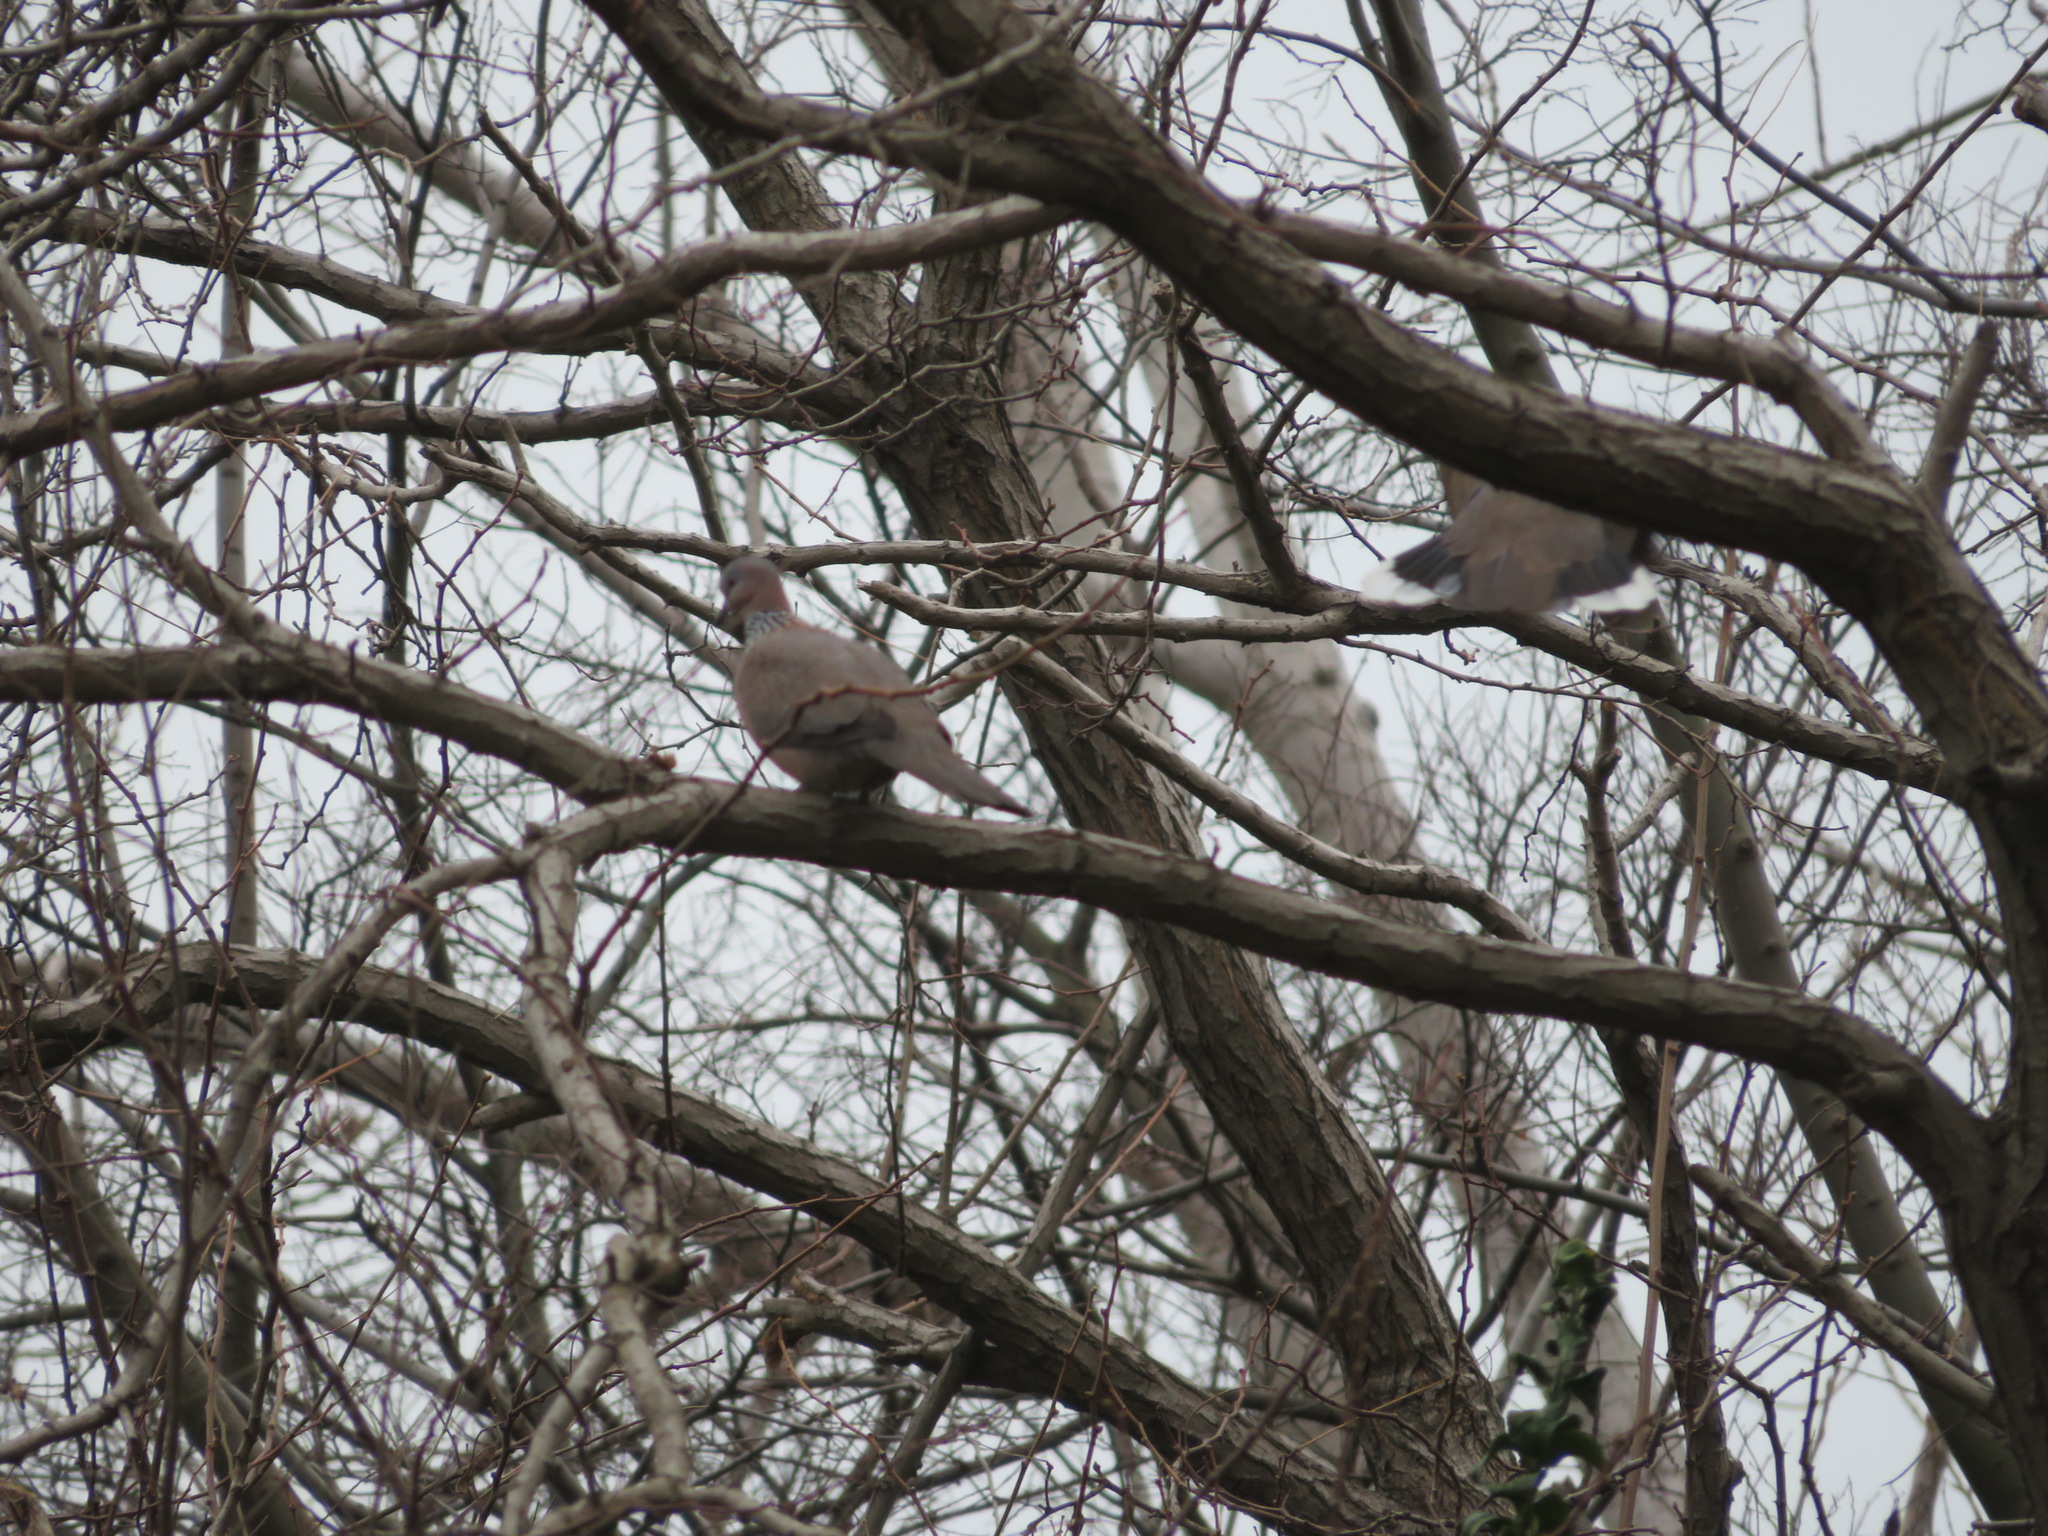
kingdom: Animalia
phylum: Chordata
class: Aves
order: Columbiformes
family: Columbidae
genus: Spilopelia
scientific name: Spilopelia chinensis
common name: Spotted dove
